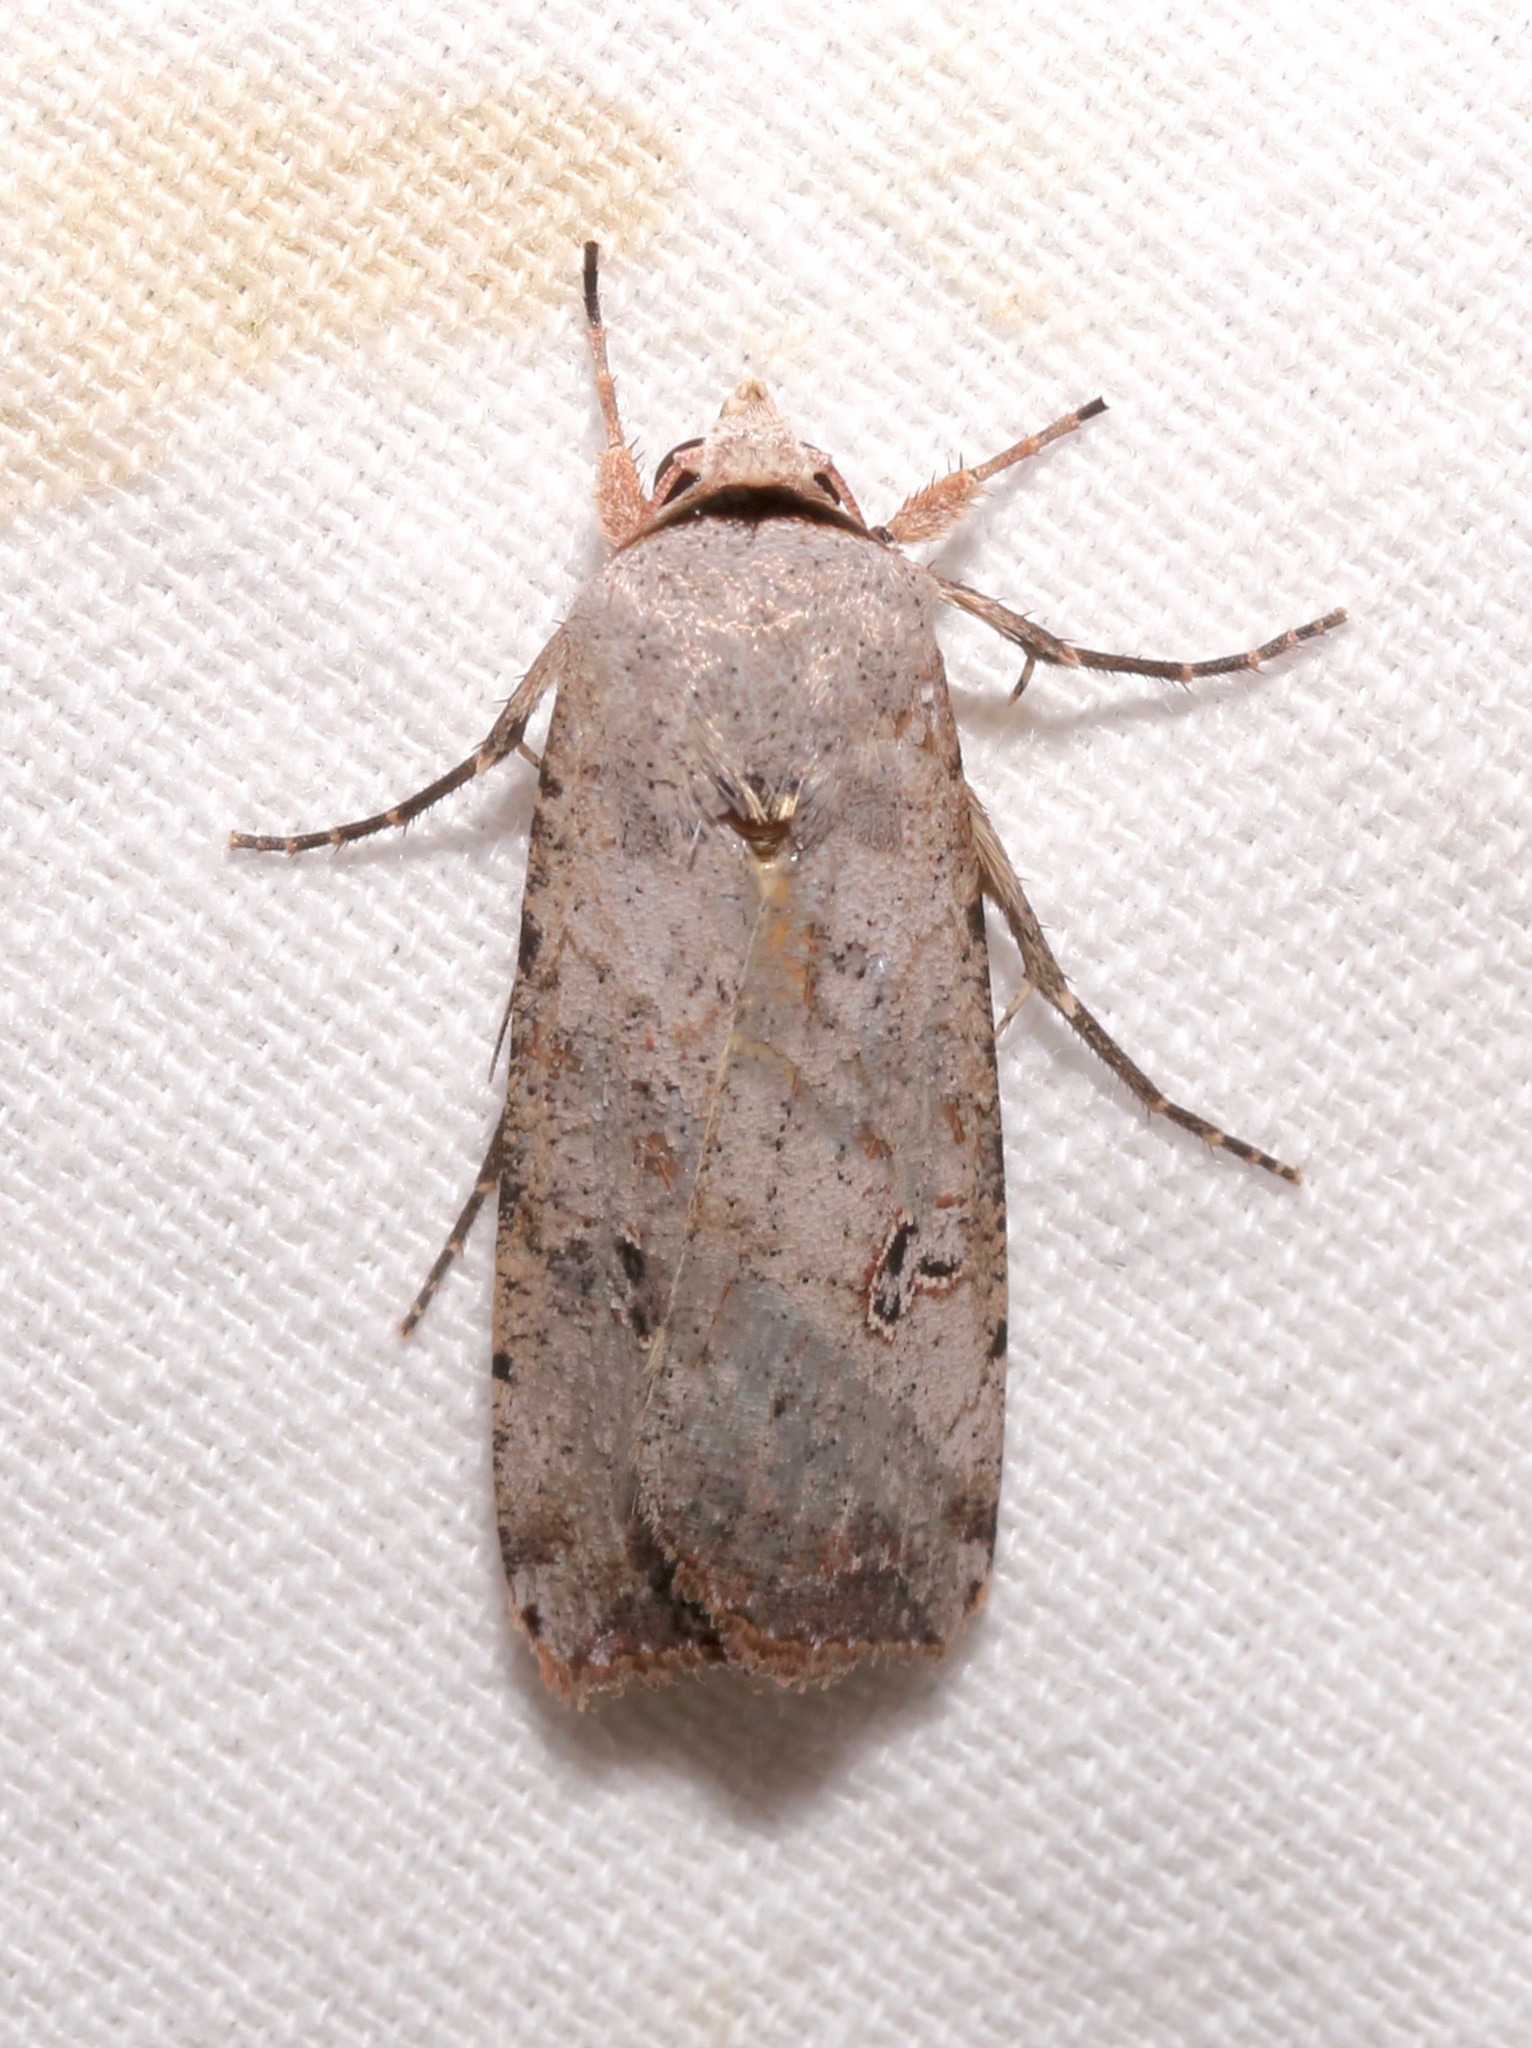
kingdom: Animalia
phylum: Arthropoda
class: Insecta
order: Lepidoptera
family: Noctuidae
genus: Anicla
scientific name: Anicla infecta
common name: Green cutworm
